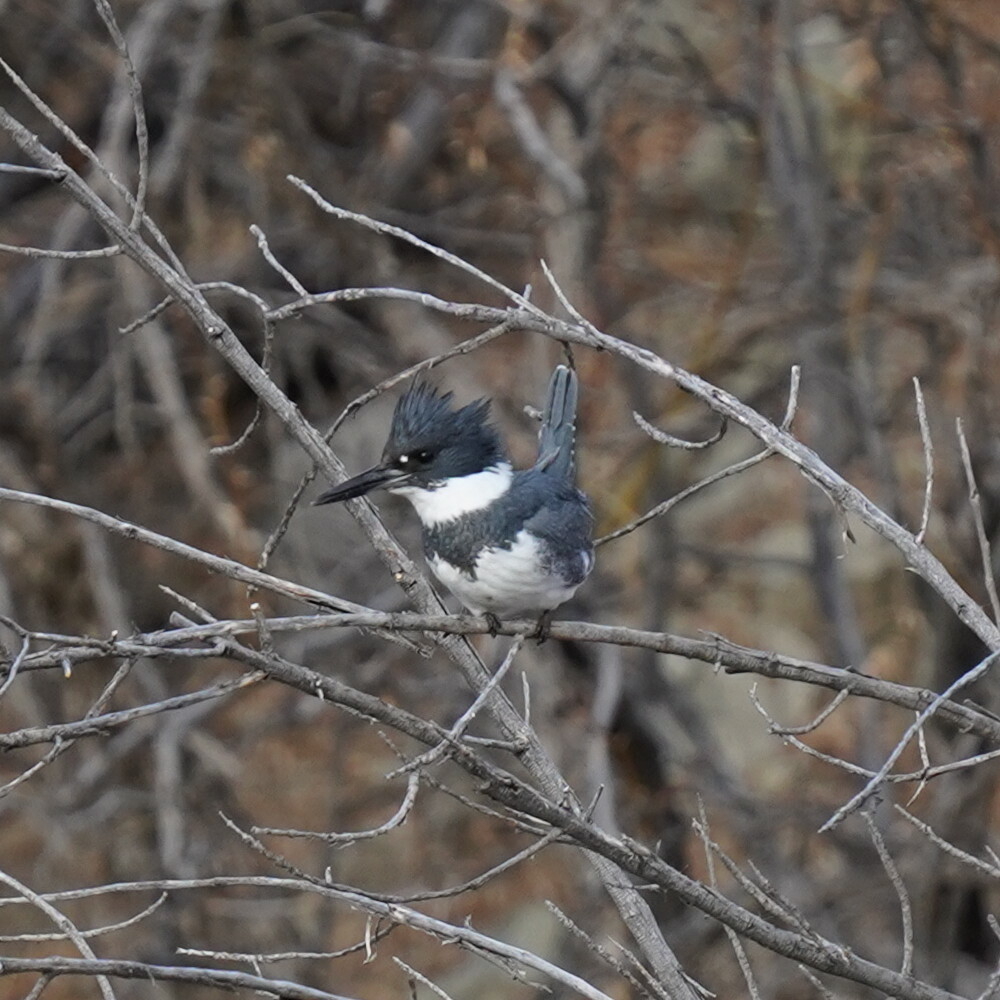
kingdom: Animalia
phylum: Chordata
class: Aves
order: Coraciiformes
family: Alcedinidae
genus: Megaceryle
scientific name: Megaceryle alcyon
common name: Belted kingfisher
